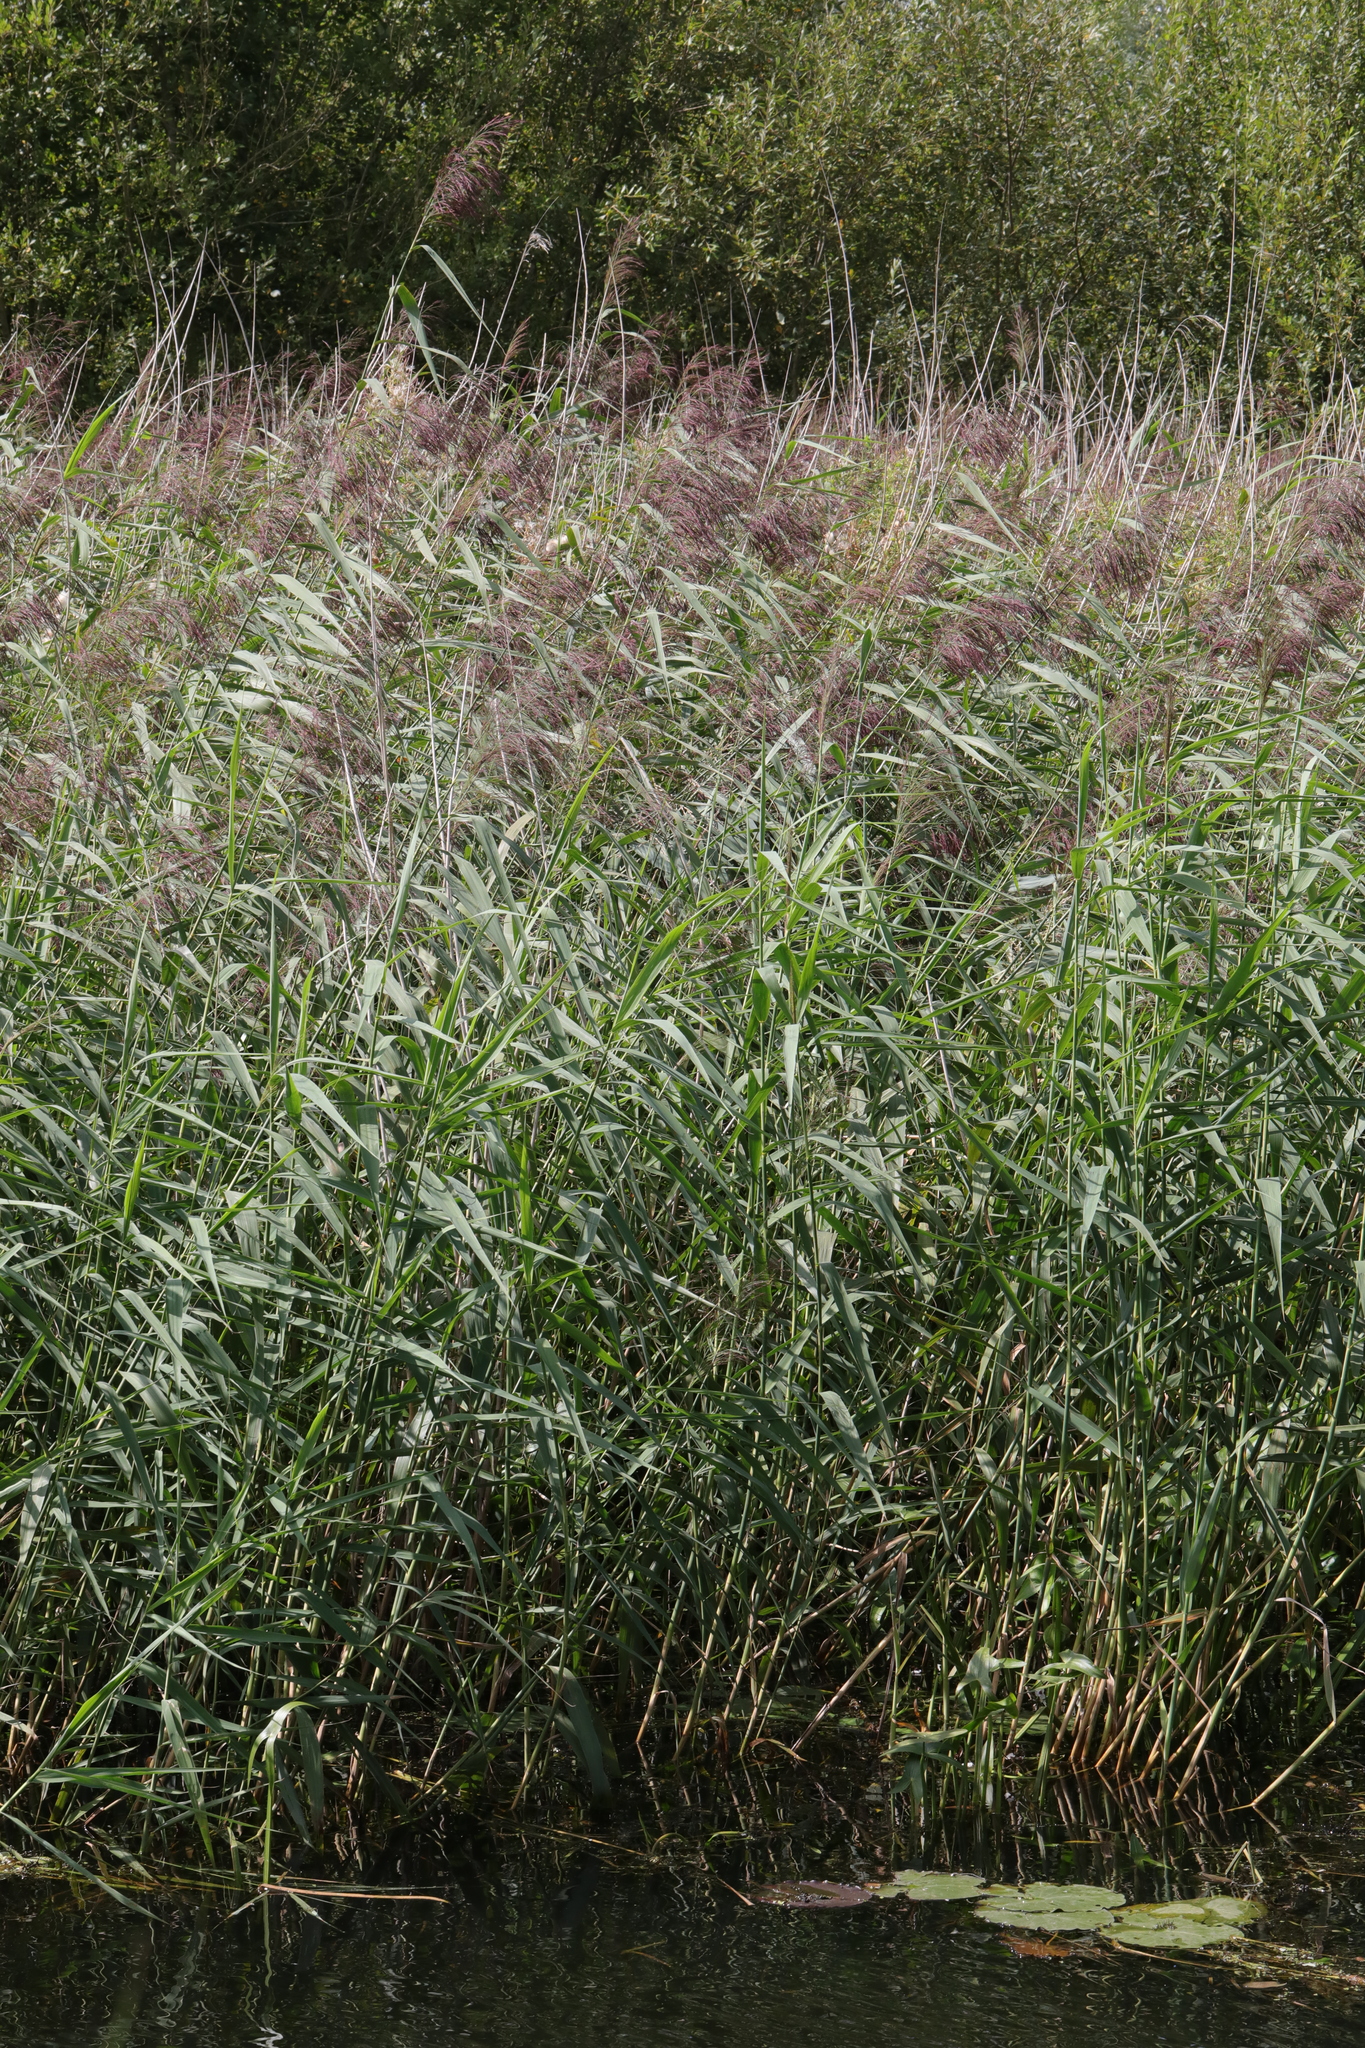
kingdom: Plantae
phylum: Tracheophyta
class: Liliopsida
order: Poales
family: Poaceae
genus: Phragmites
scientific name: Phragmites australis
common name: Common reed
